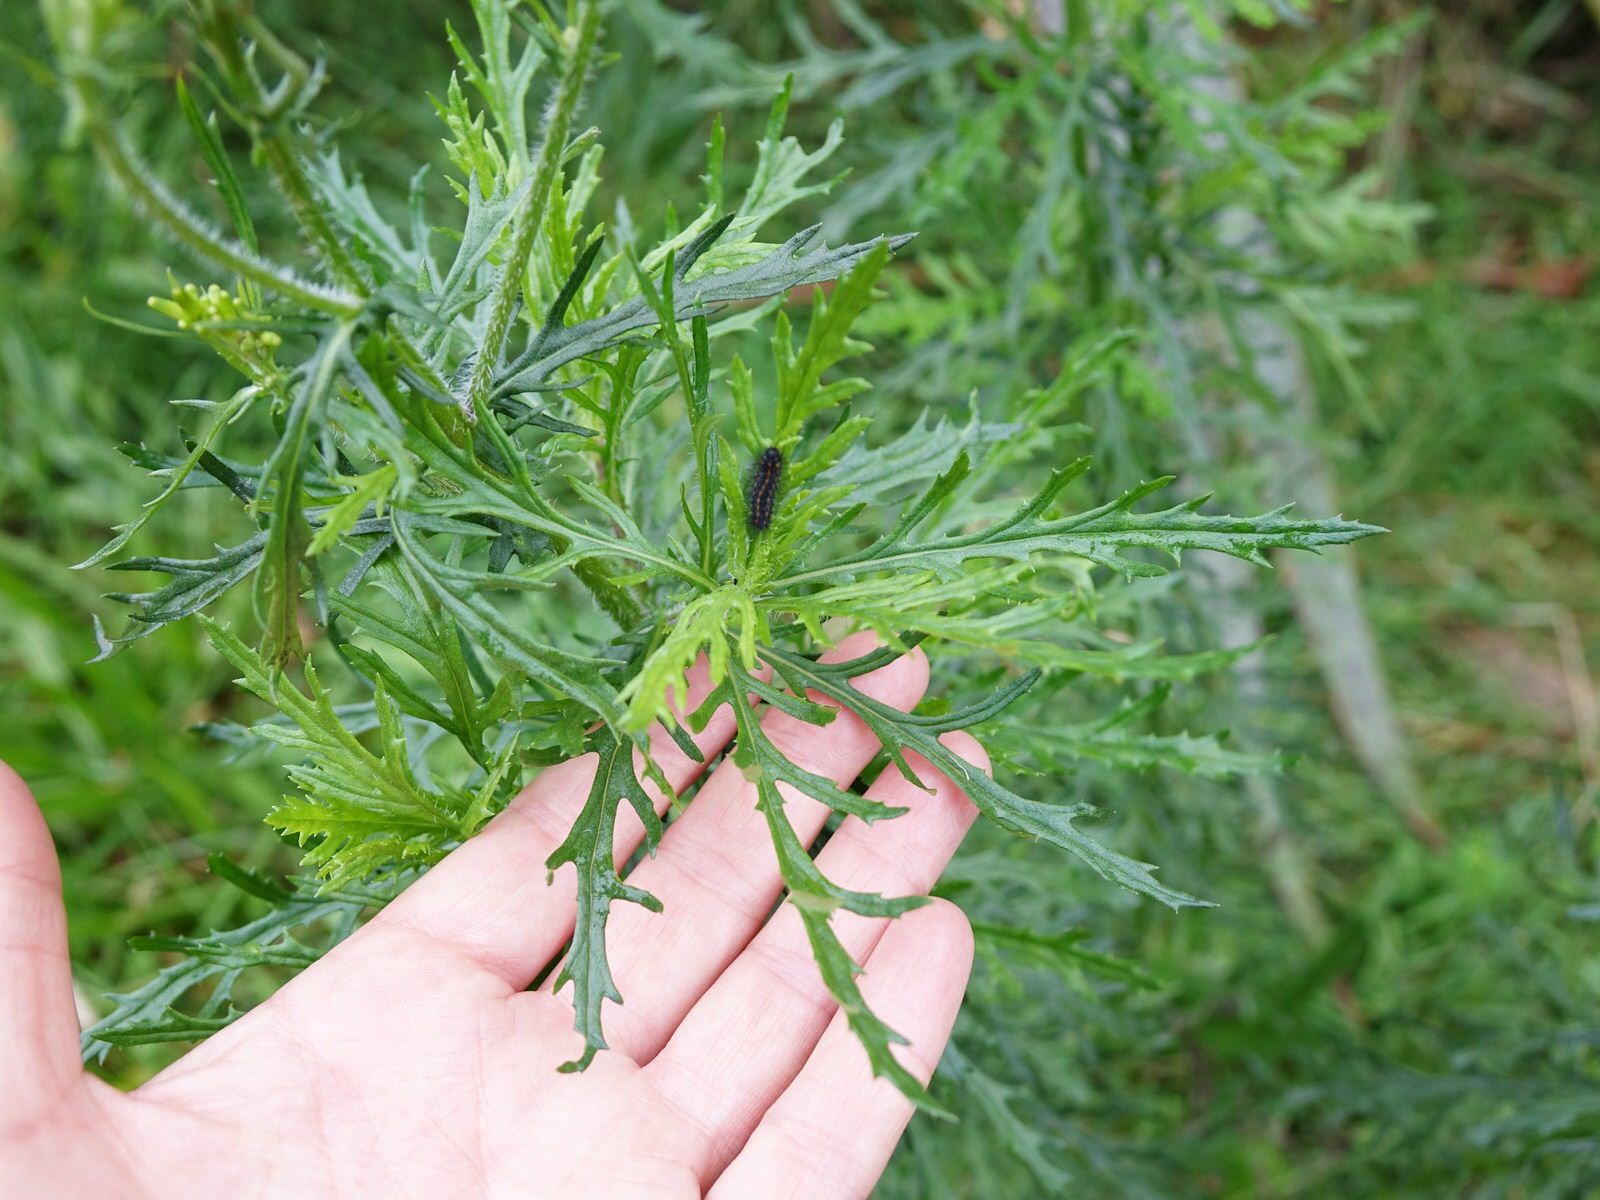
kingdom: Plantae
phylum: Tracheophyta
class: Magnoliopsida
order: Asterales
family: Asteraceae
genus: Senecio
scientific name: Senecio esleri
